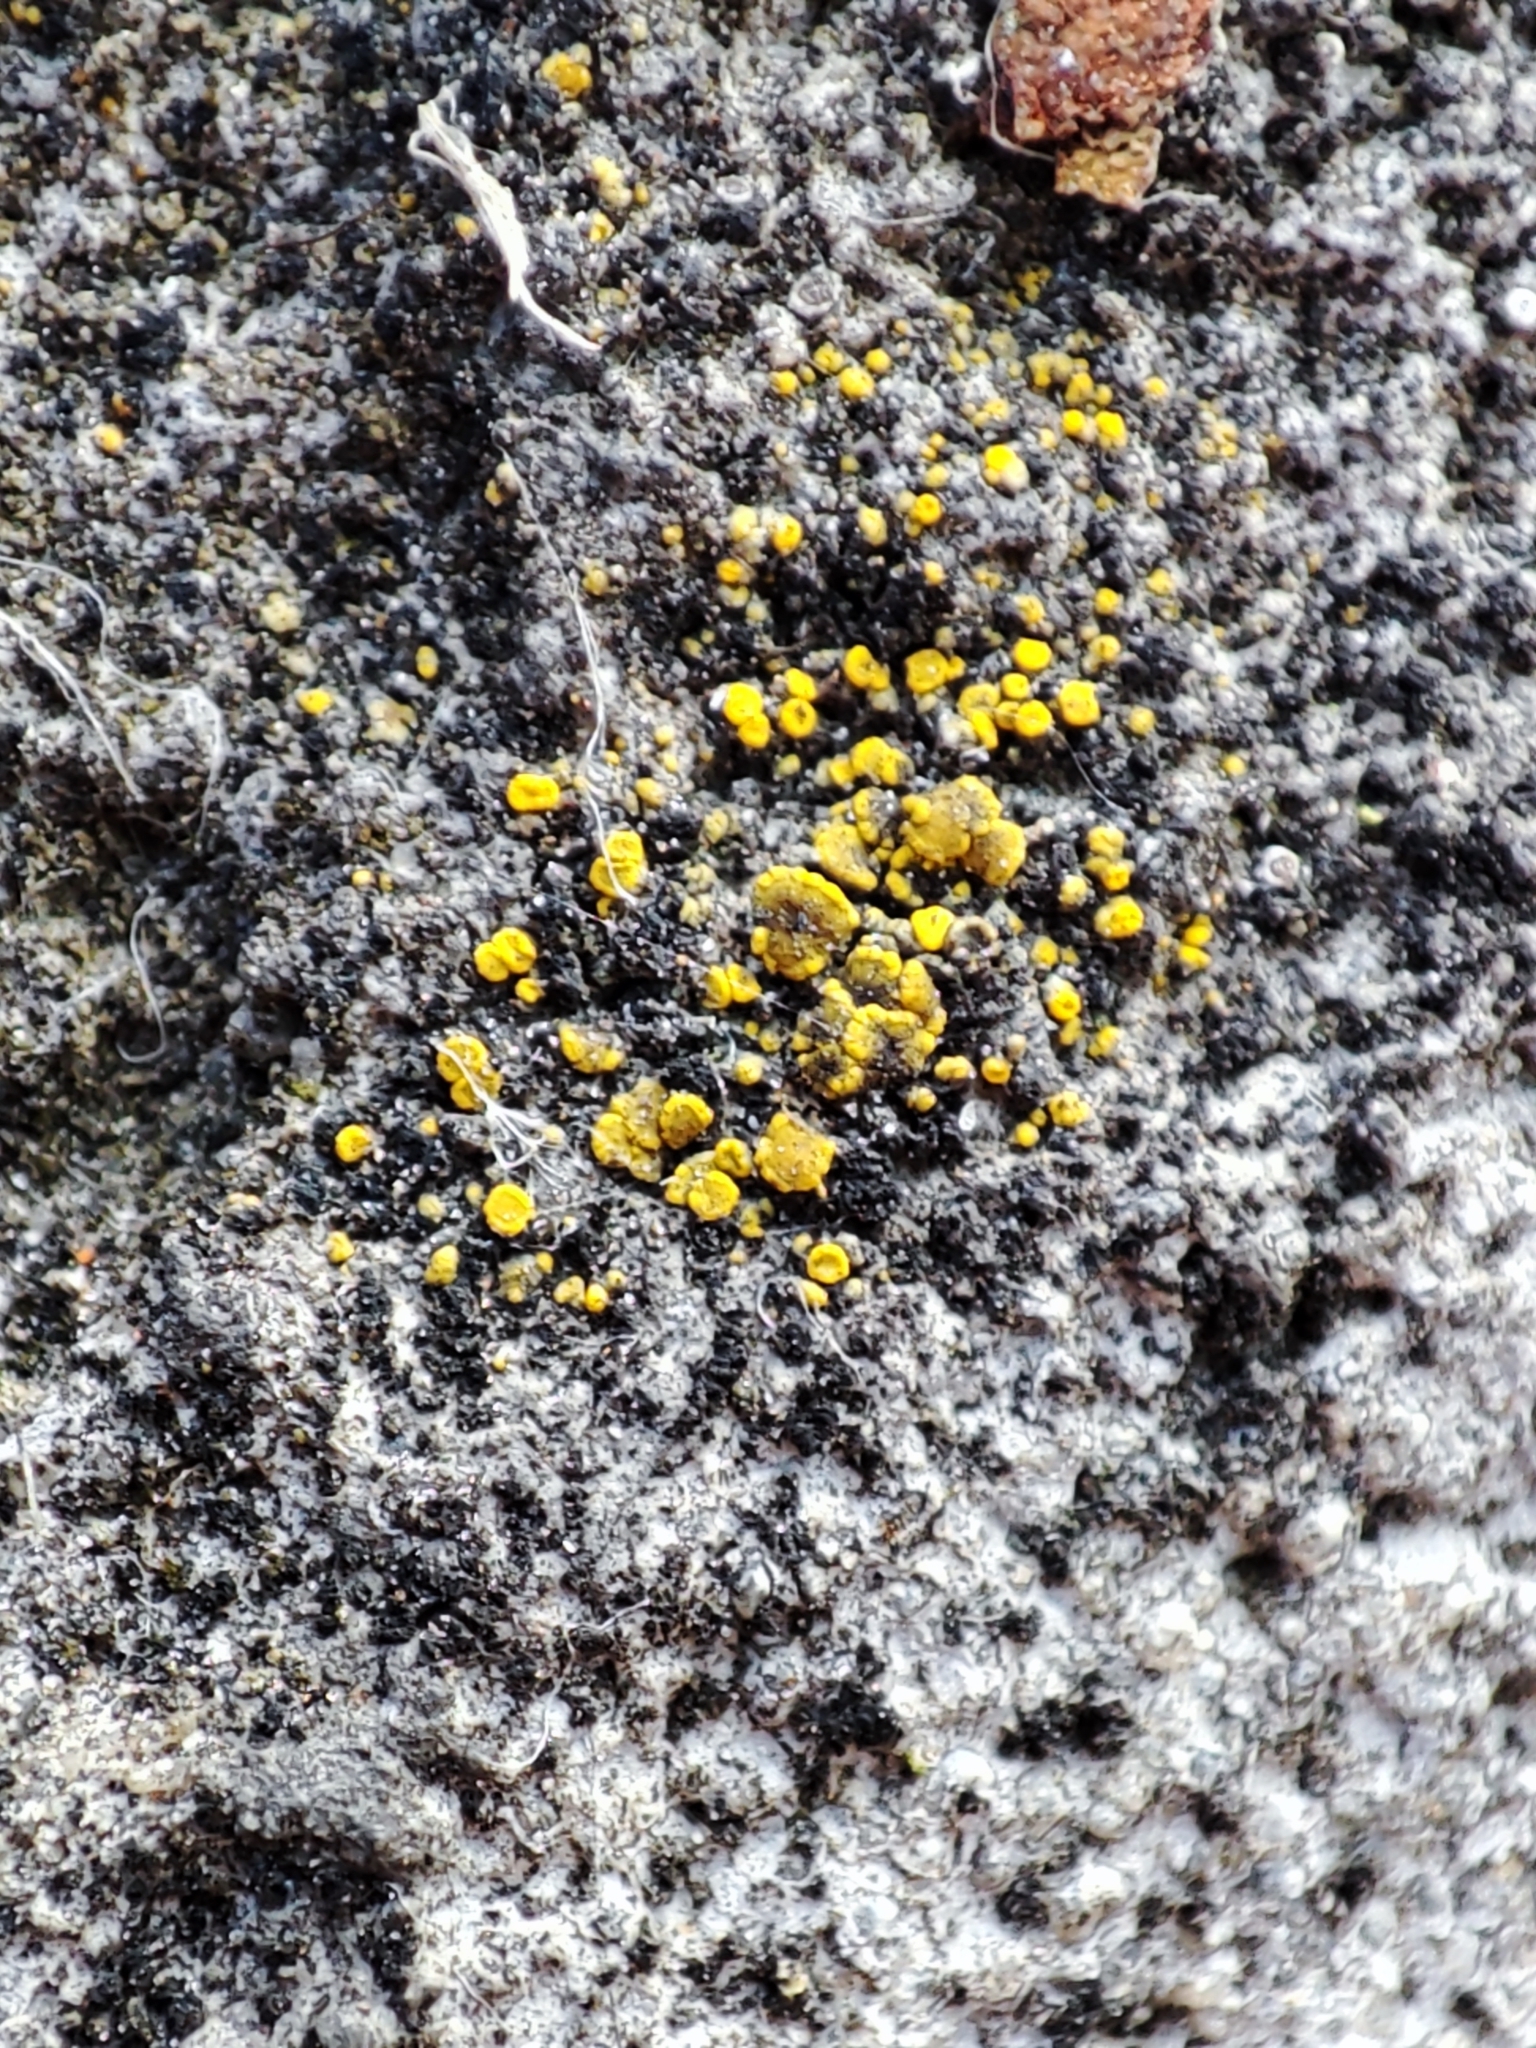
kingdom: Fungi
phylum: Ascomycota
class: Candelariomycetes
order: Candelariales
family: Candelariaceae
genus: Candelariella
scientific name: Candelariella aurella
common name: Hidden goldspeck lichen
